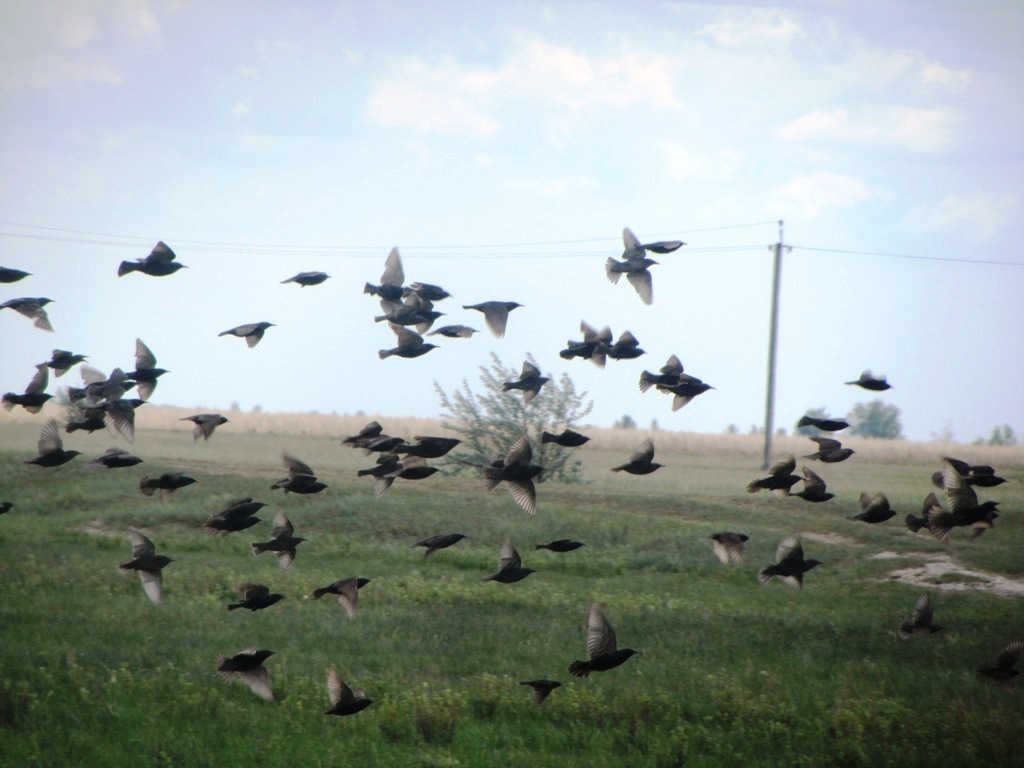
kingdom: Animalia
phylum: Chordata
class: Aves
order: Passeriformes
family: Sturnidae
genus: Sturnus
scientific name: Sturnus vulgaris
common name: Common starling
